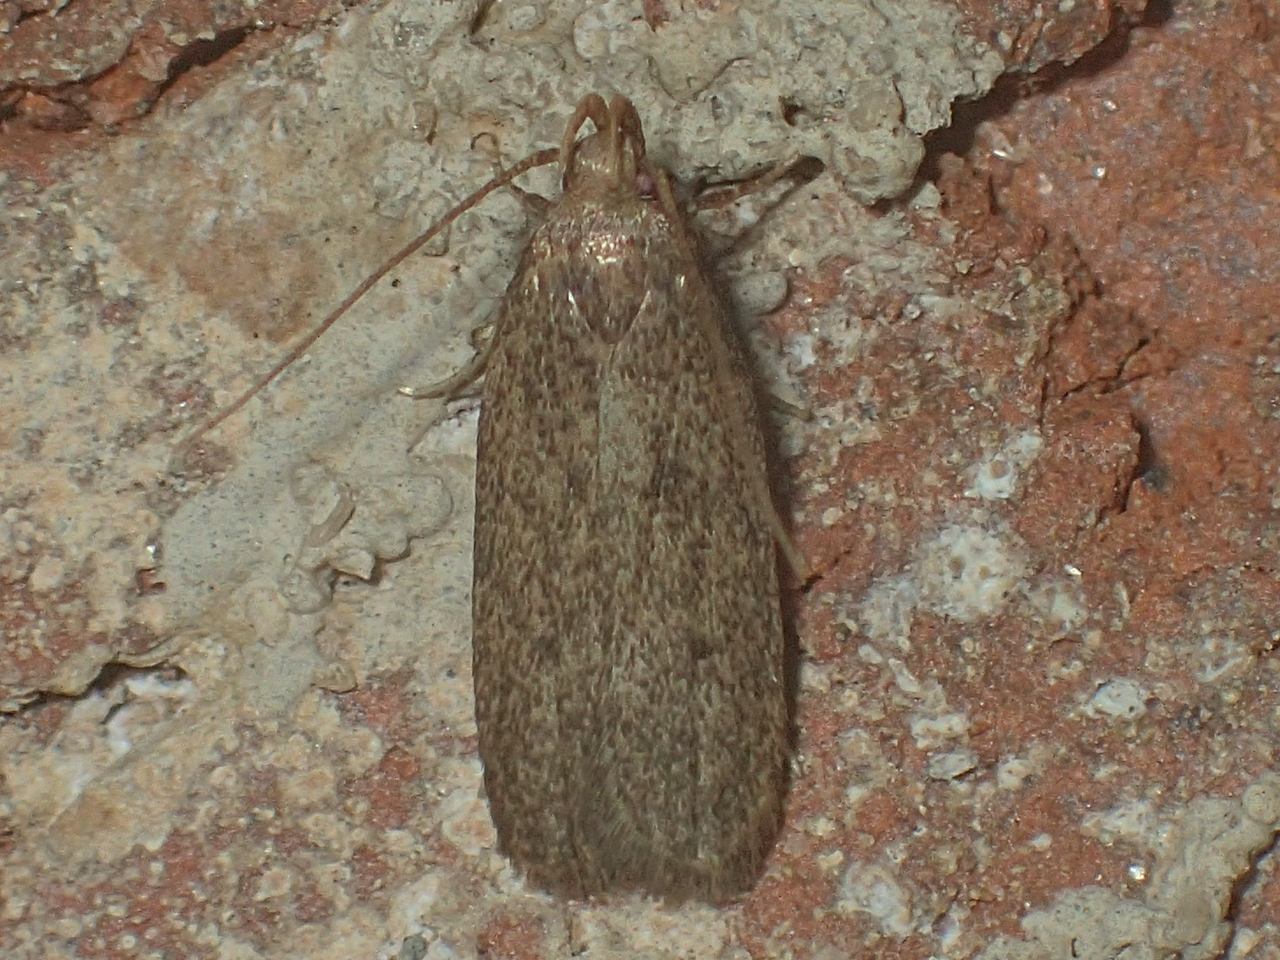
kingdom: Animalia
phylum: Arthropoda
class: Insecta
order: Lepidoptera
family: Autostichidae
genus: Glyphidocera
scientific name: Glyphidocera juniperella
